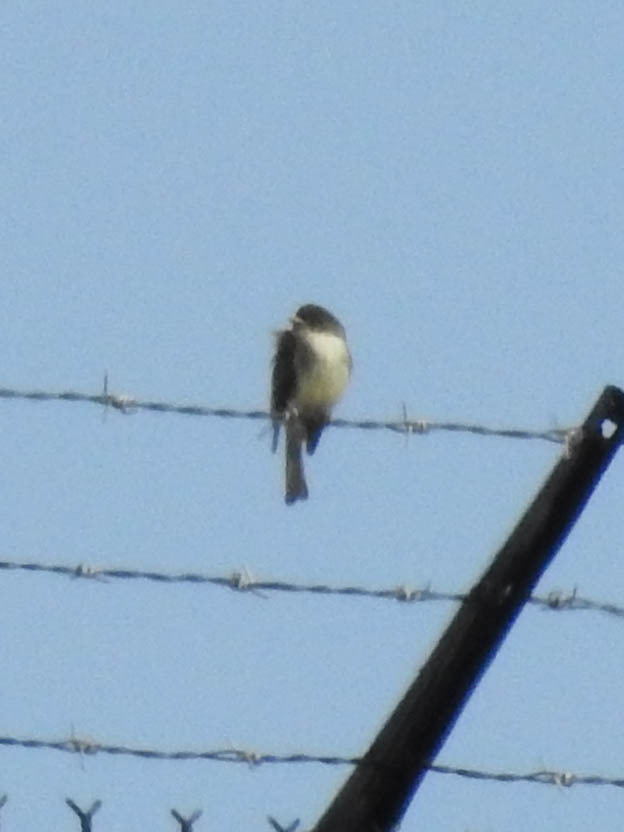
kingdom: Animalia
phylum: Chordata
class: Aves
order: Passeriformes
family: Tyrannidae
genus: Sayornis
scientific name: Sayornis phoebe
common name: Eastern phoebe
